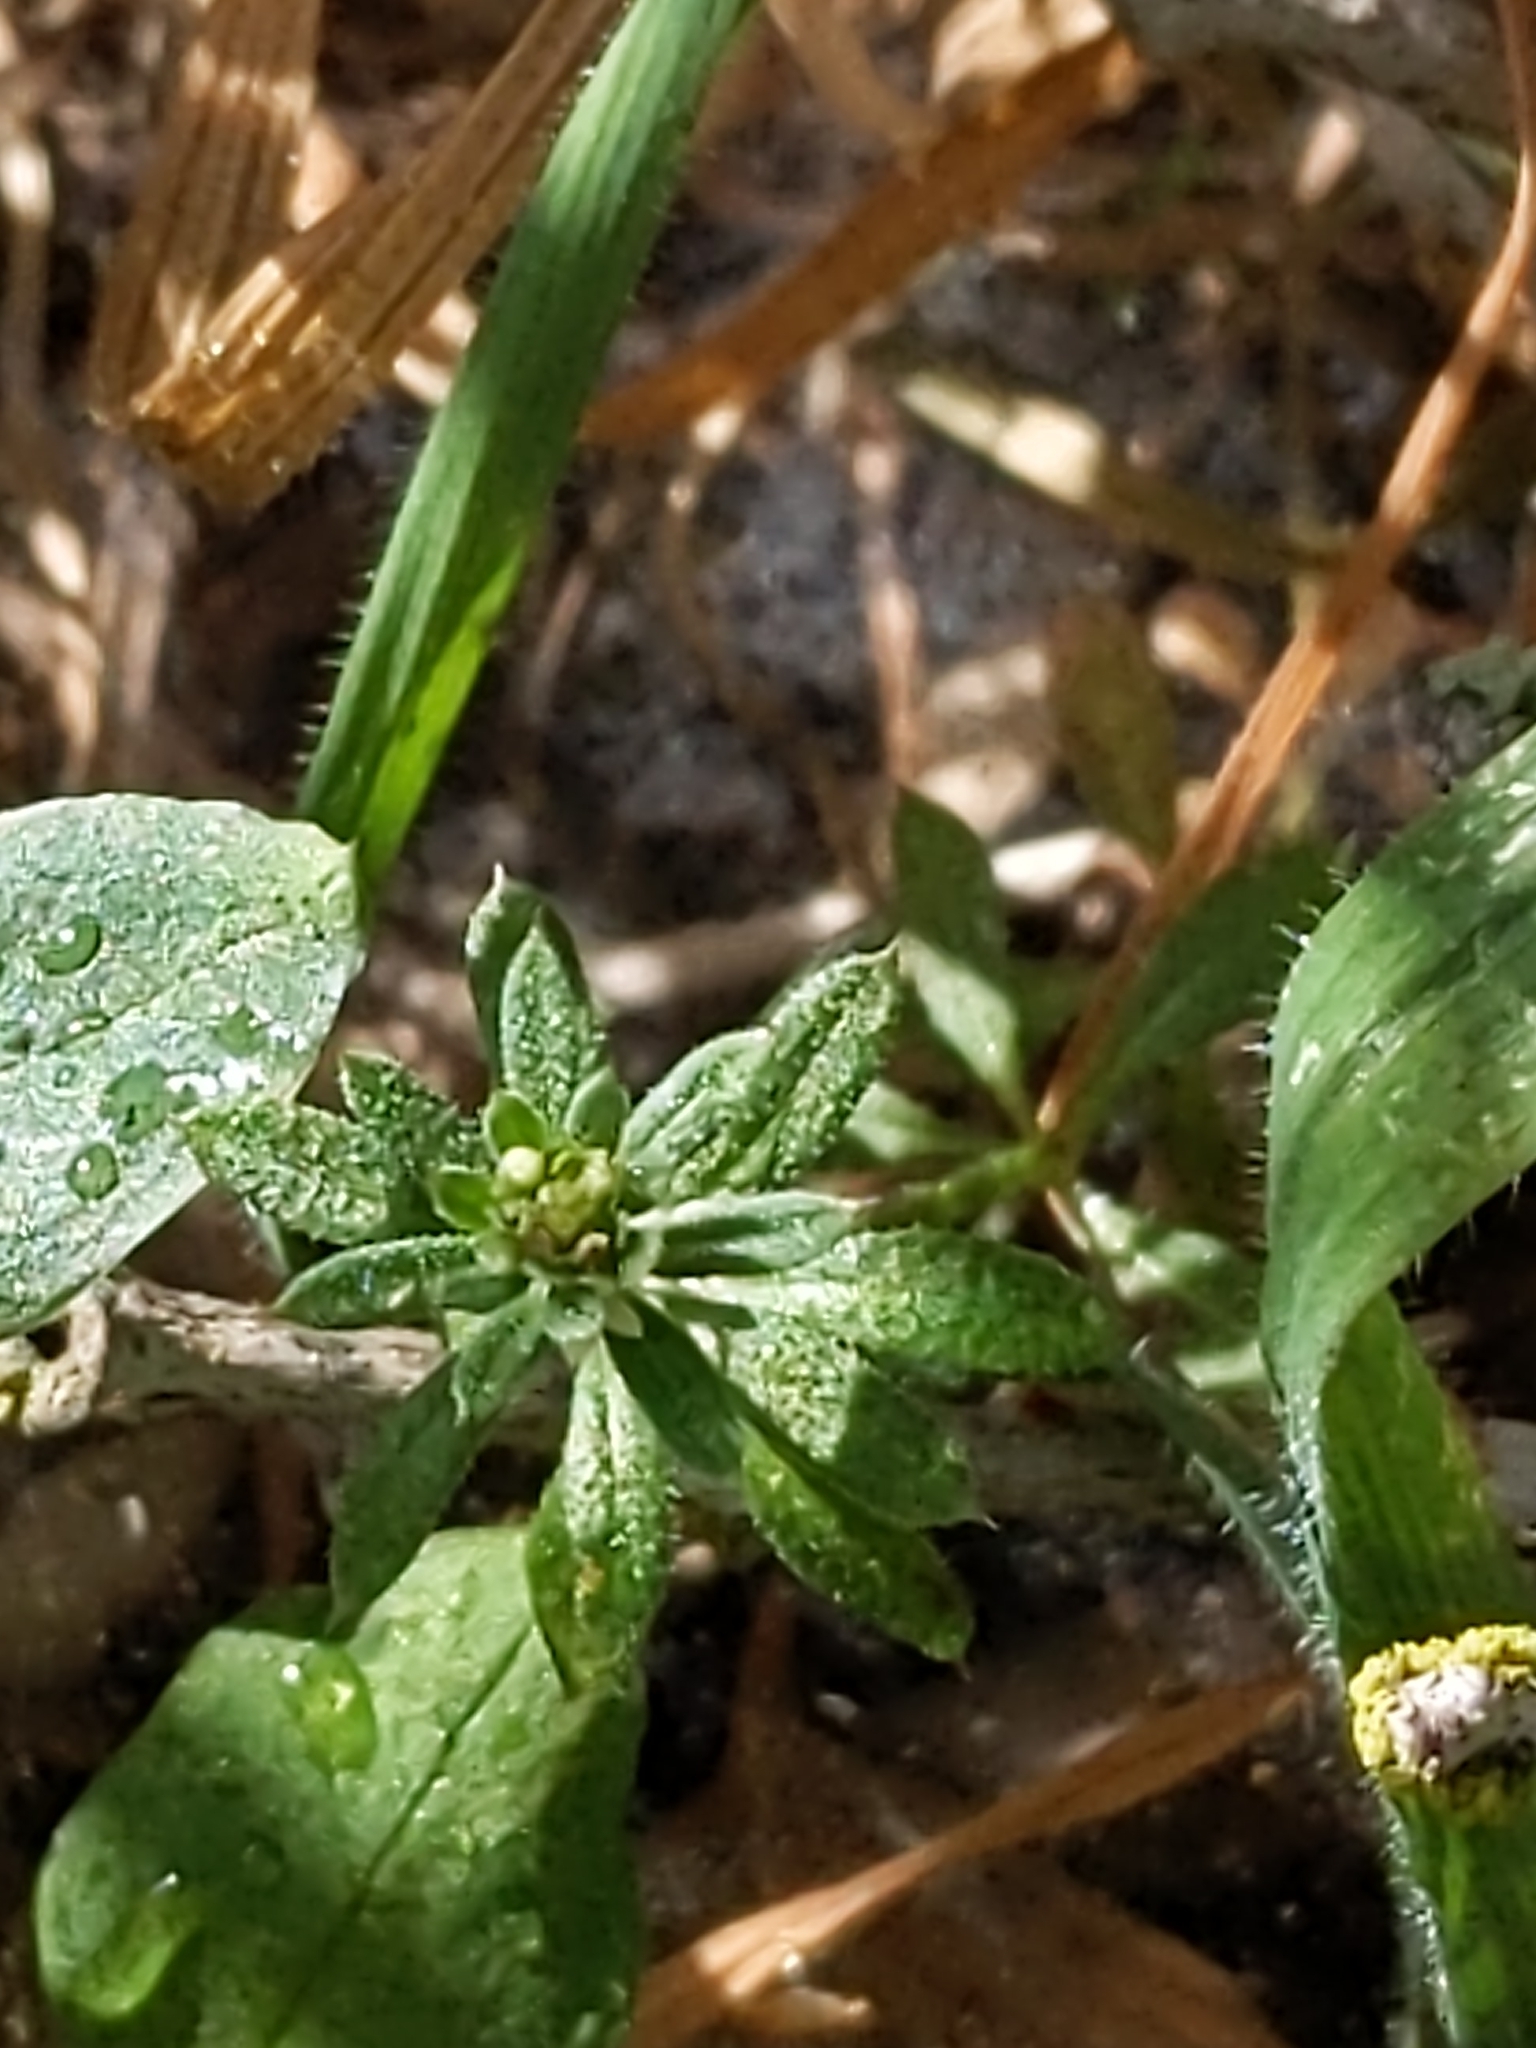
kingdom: Plantae
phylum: Tracheophyta
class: Magnoliopsida
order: Gentianales
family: Rubiaceae
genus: Galium
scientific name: Galium aparine
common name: Cleavers
